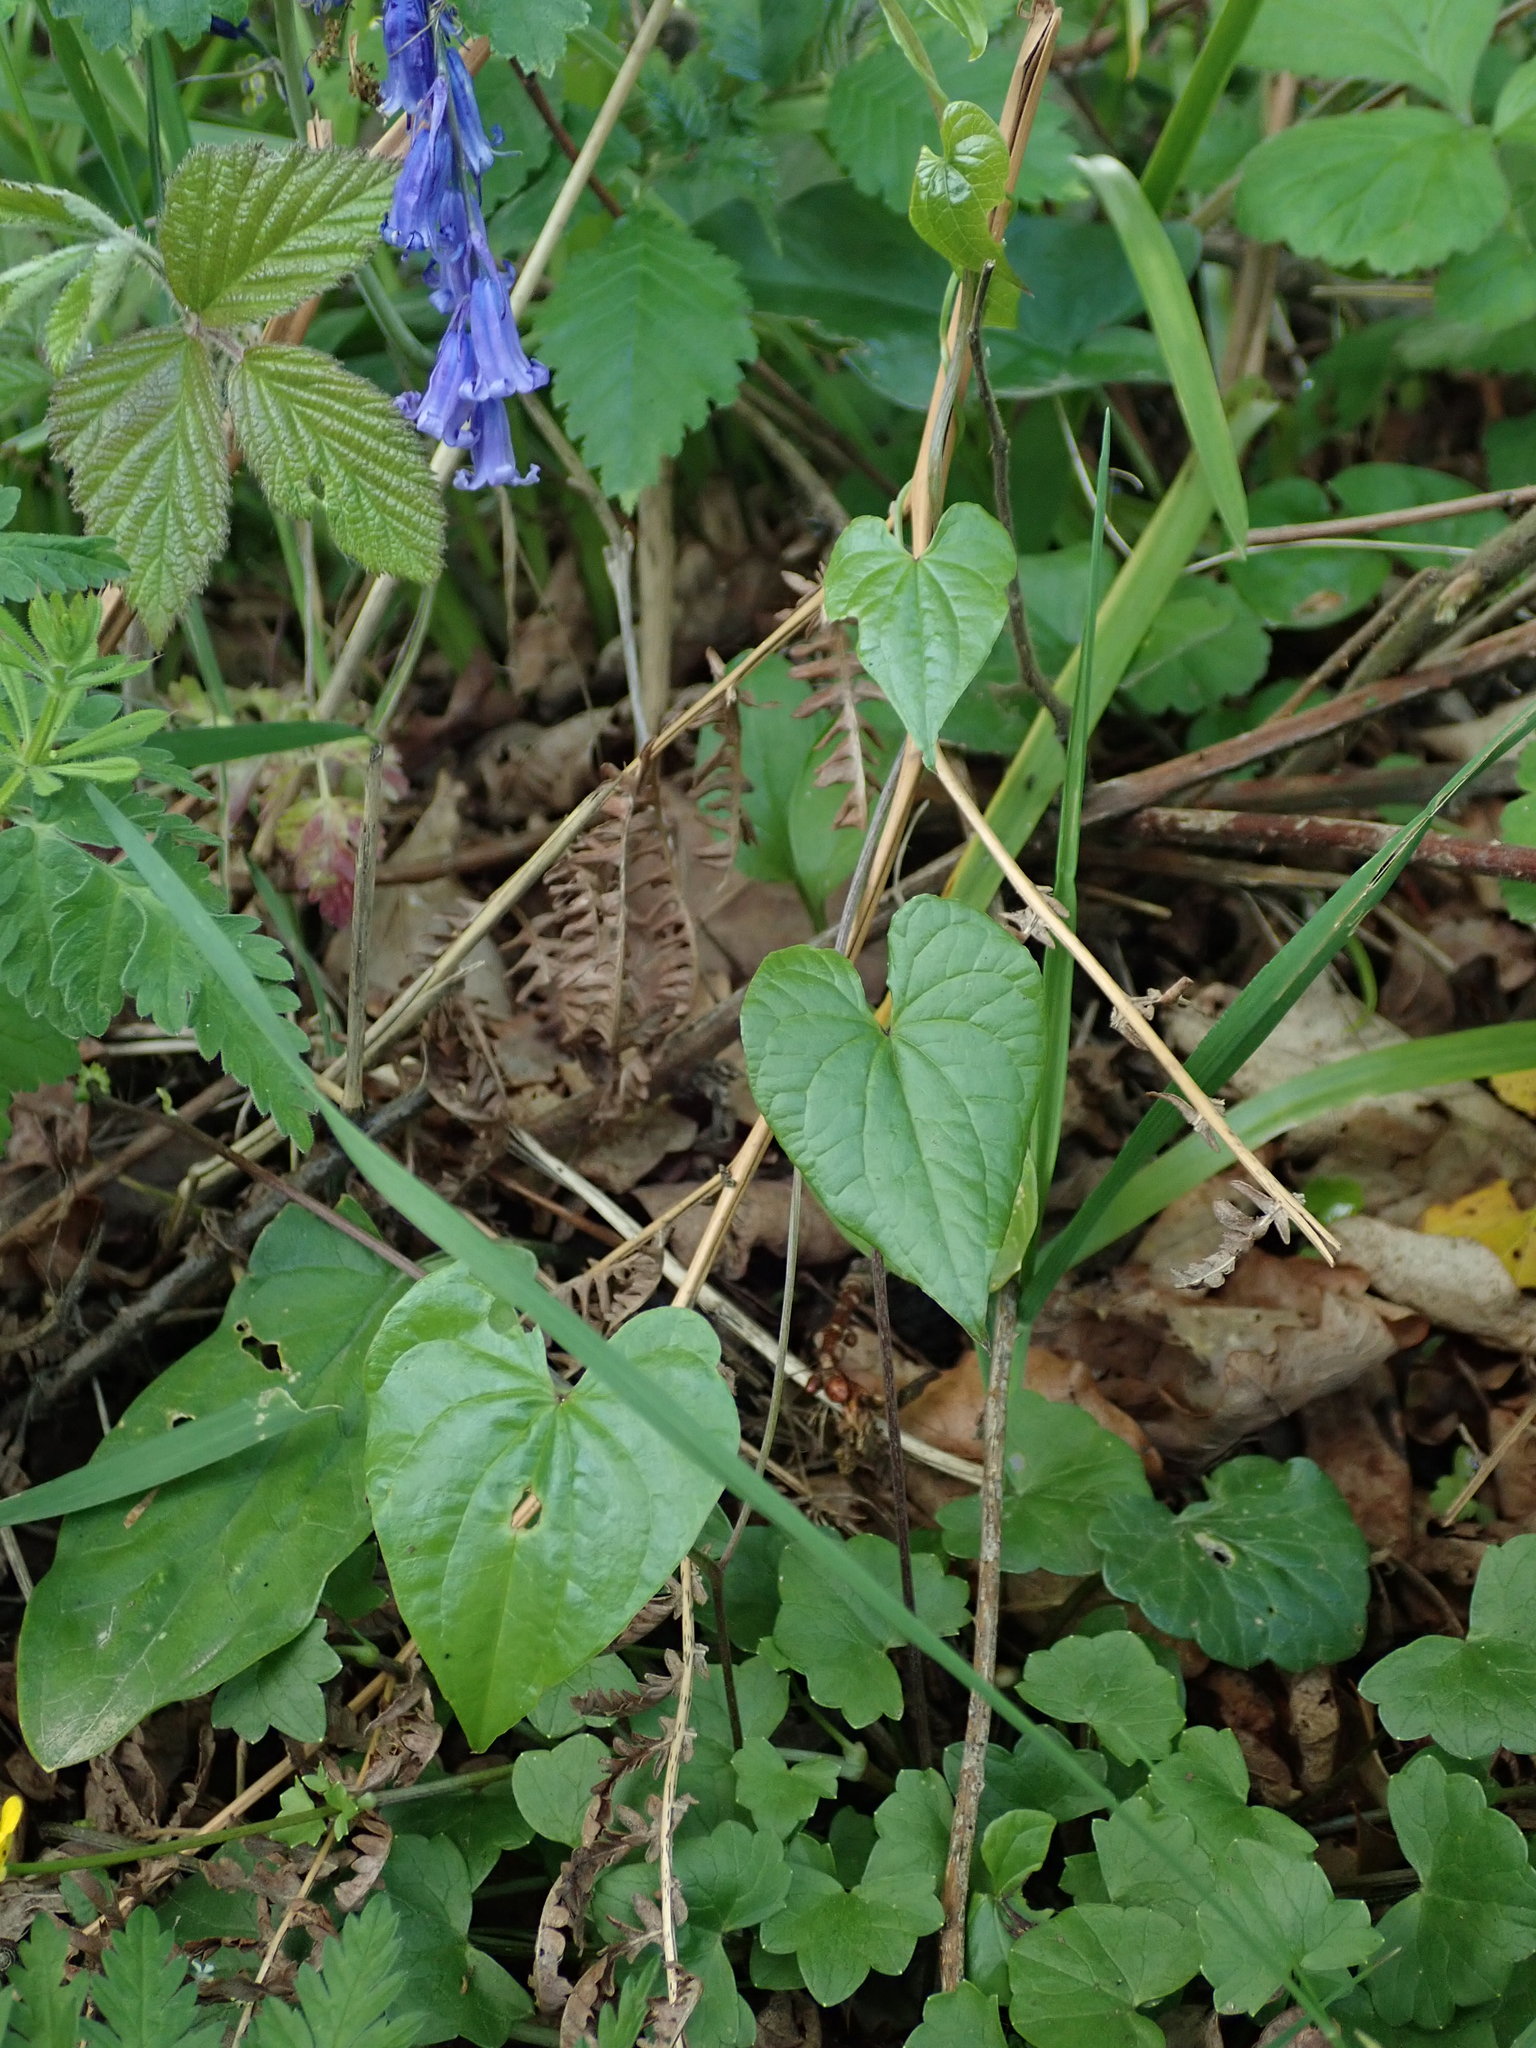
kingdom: Plantae
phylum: Tracheophyta
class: Liliopsida
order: Dioscoreales
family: Dioscoreaceae
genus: Dioscorea
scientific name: Dioscorea communis
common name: Black-bindweed
